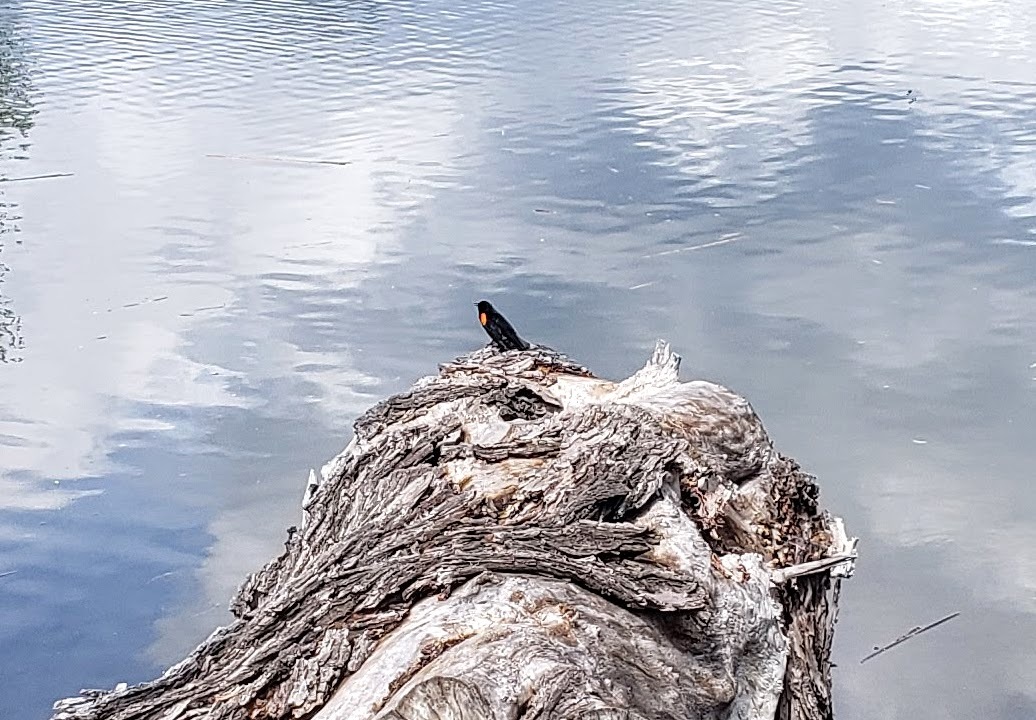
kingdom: Animalia
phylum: Chordata
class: Aves
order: Passeriformes
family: Icteridae
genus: Agelaius
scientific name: Agelaius phoeniceus
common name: Red-winged blackbird
